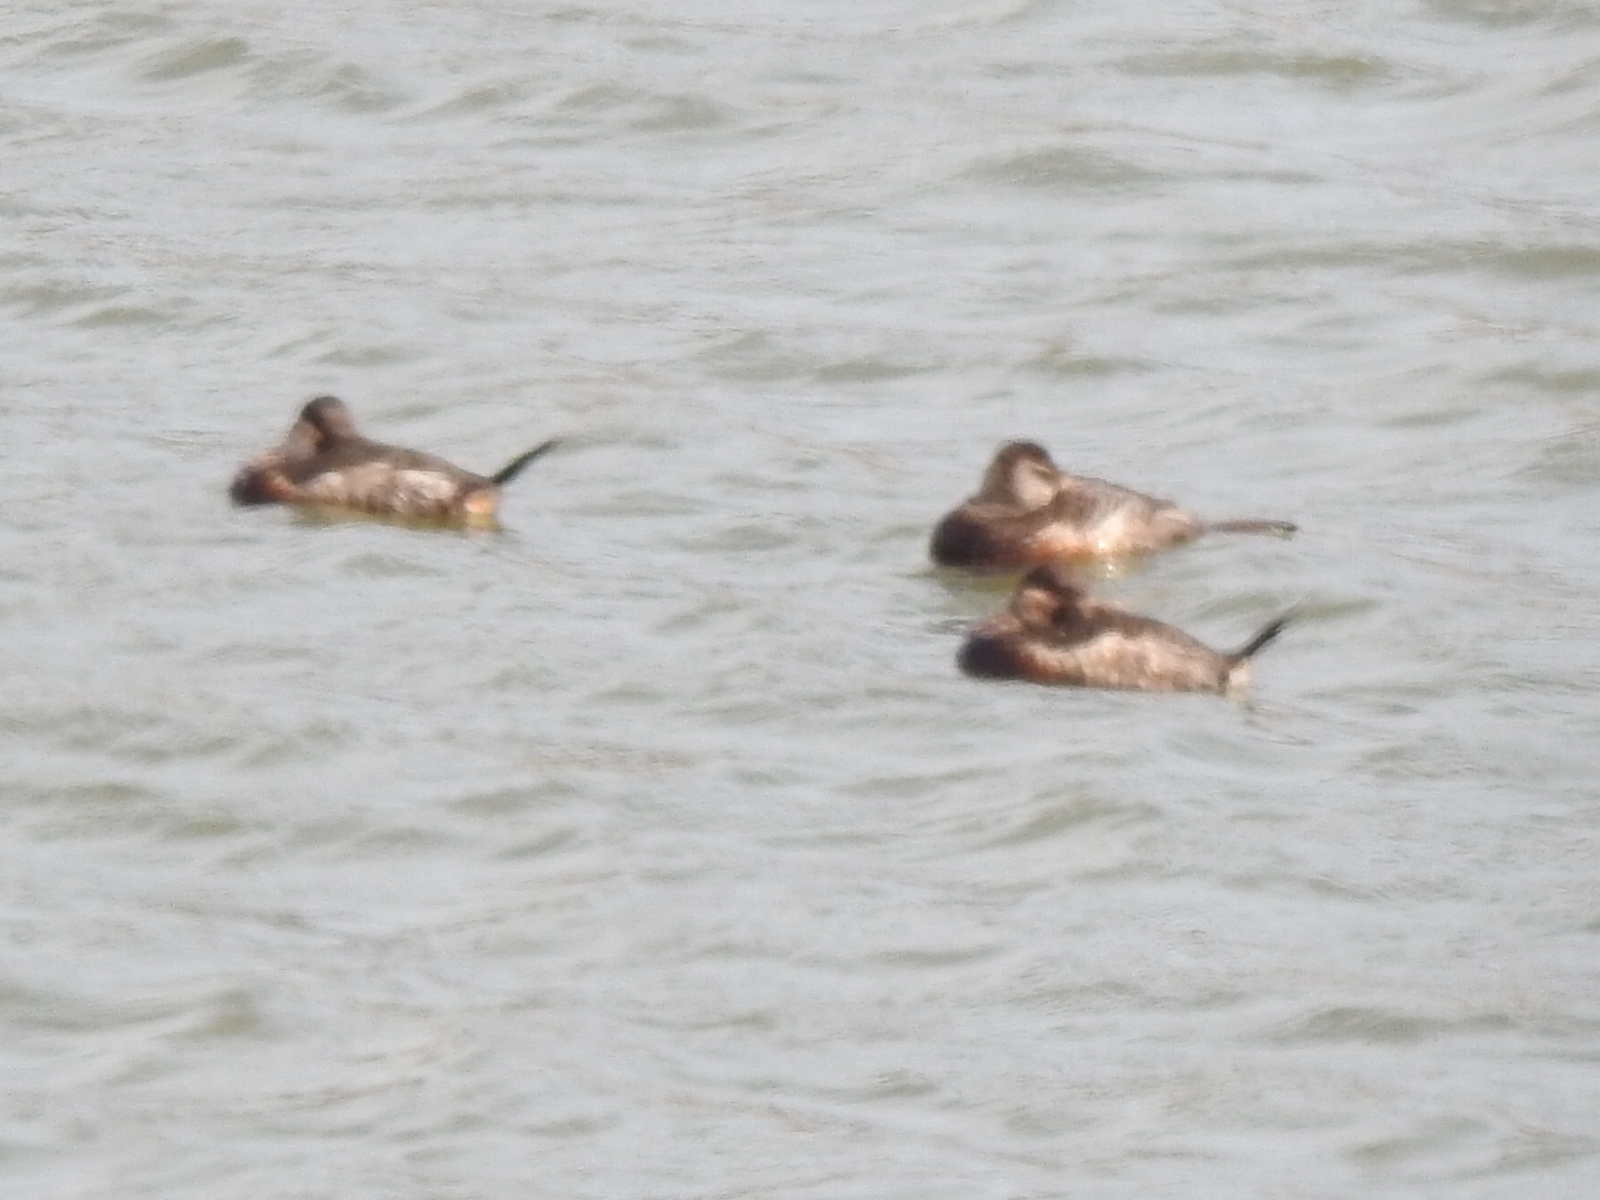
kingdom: Animalia
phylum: Chordata
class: Aves
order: Anseriformes
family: Anatidae
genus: Oxyura
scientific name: Oxyura jamaicensis
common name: Ruddy duck
